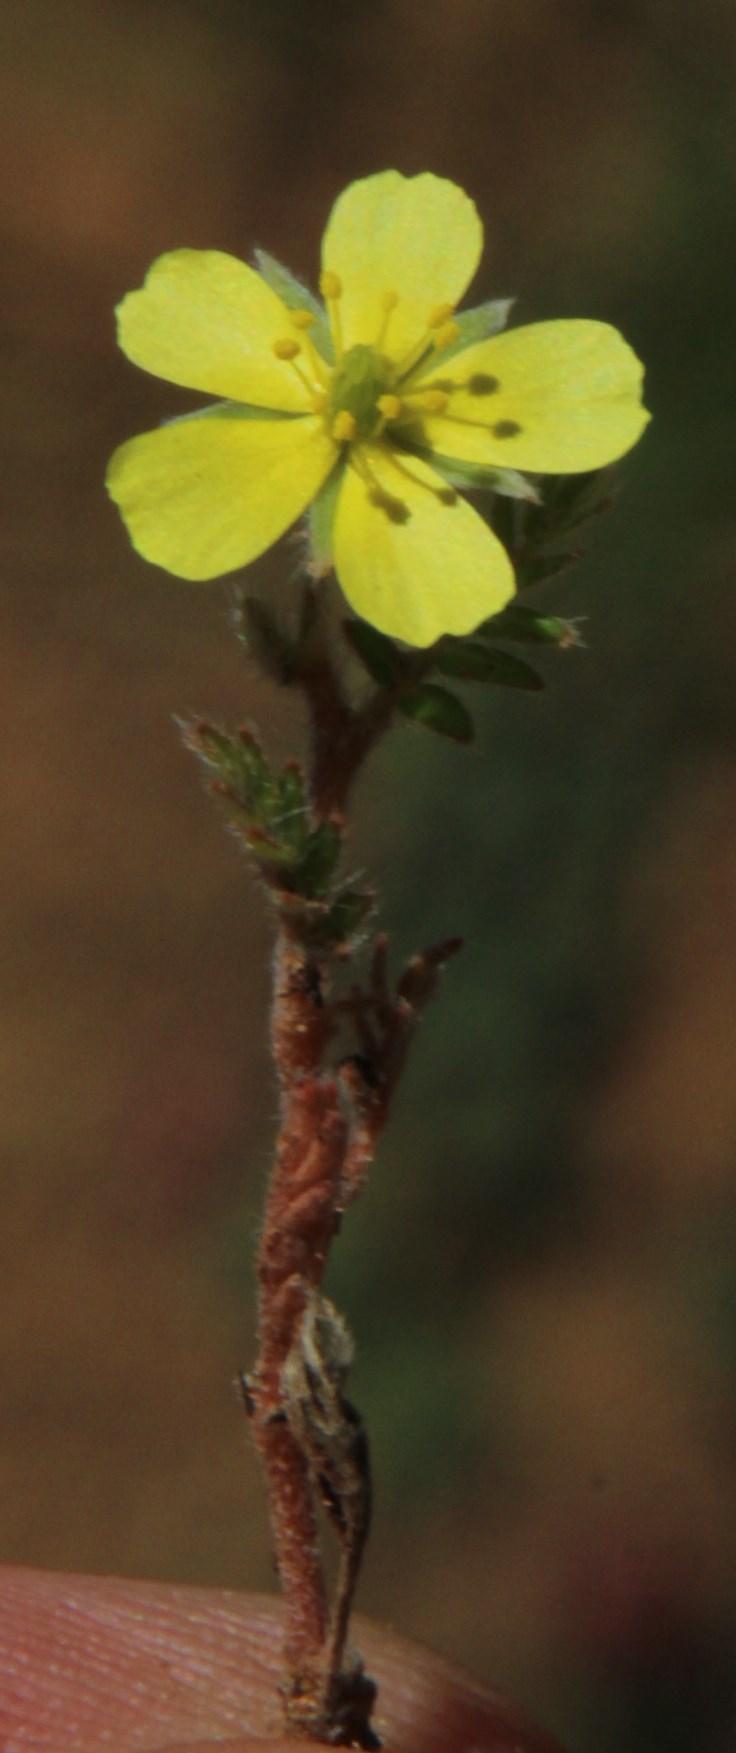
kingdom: Plantae
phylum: Tracheophyta
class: Magnoliopsida
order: Zygophyllales
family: Zygophyllaceae
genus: Tribulus
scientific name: Tribulus terrestris
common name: Puncturevine
